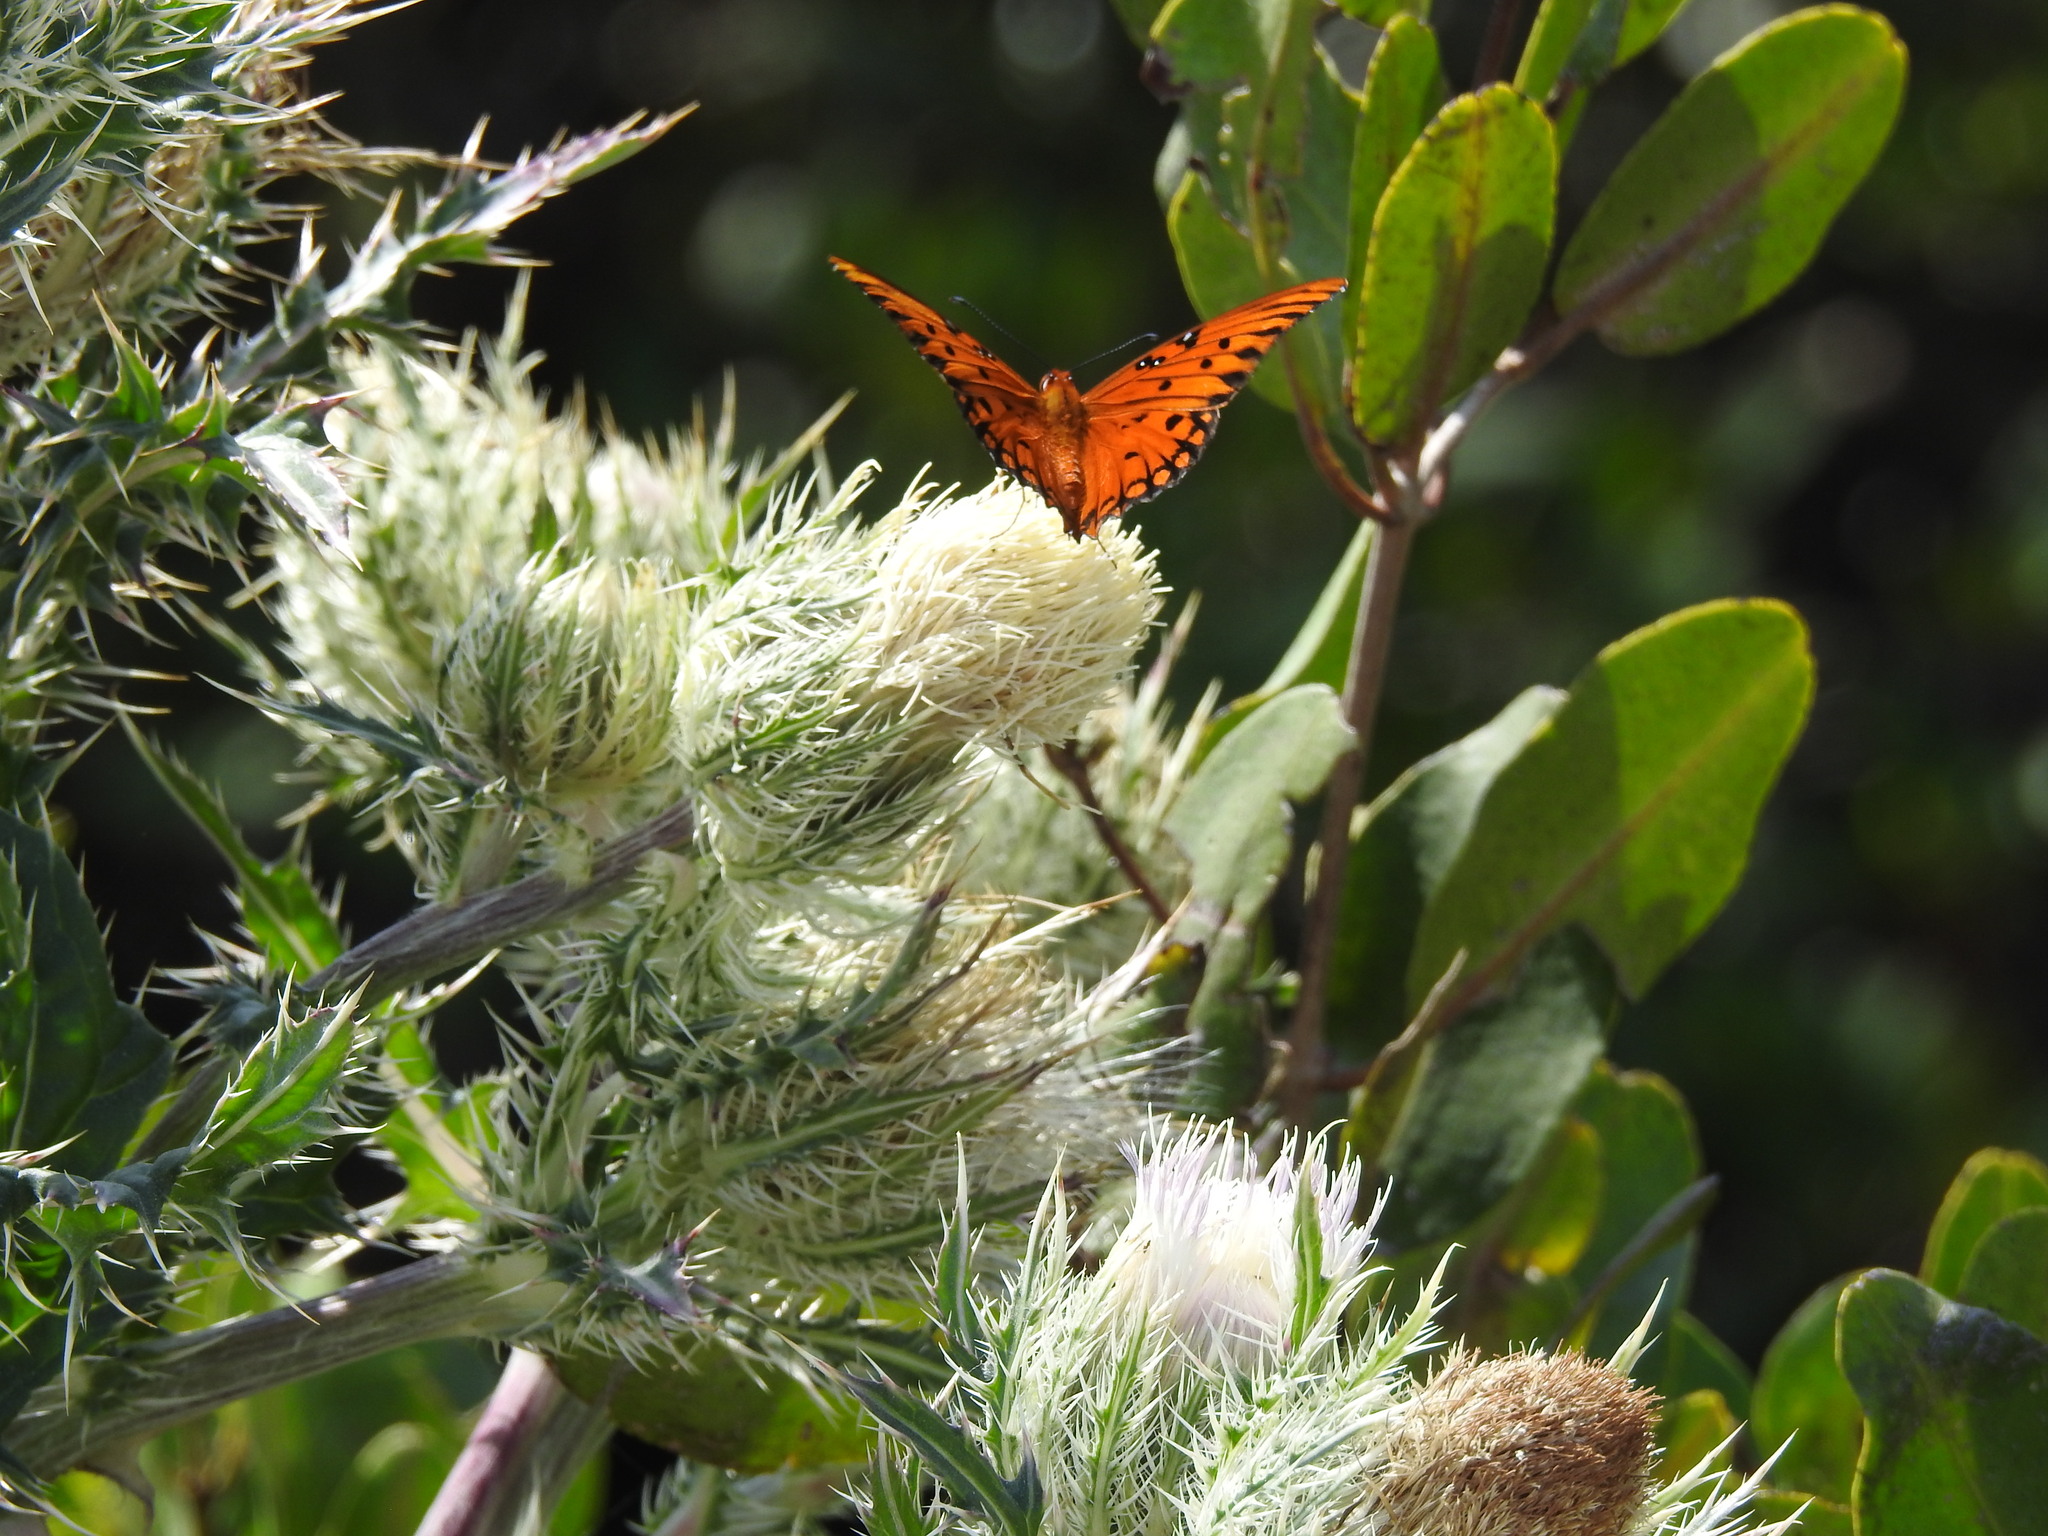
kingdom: Animalia
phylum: Arthropoda
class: Insecta
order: Lepidoptera
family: Nymphalidae
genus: Dione
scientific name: Dione vanillae
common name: Gulf fritillary
